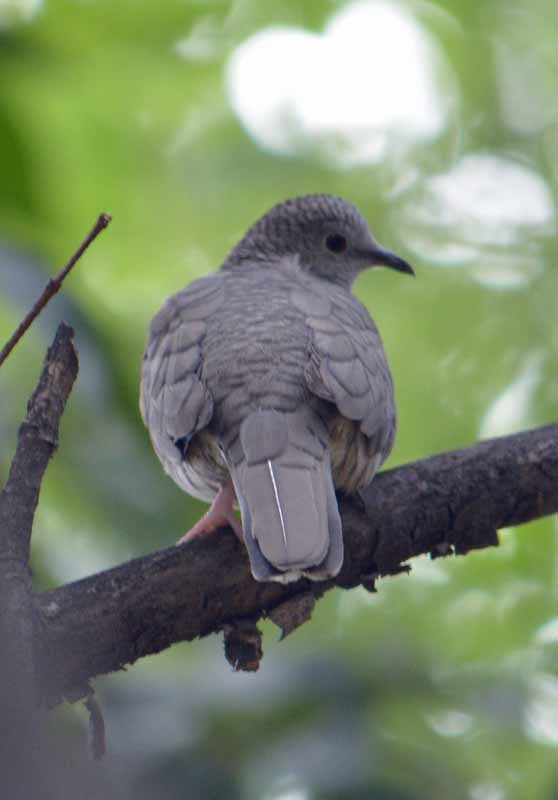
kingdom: Animalia
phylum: Chordata
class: Aves
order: Columbiformes
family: Columbidae
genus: Columbina
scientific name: Columbina inca
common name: Inca dove
